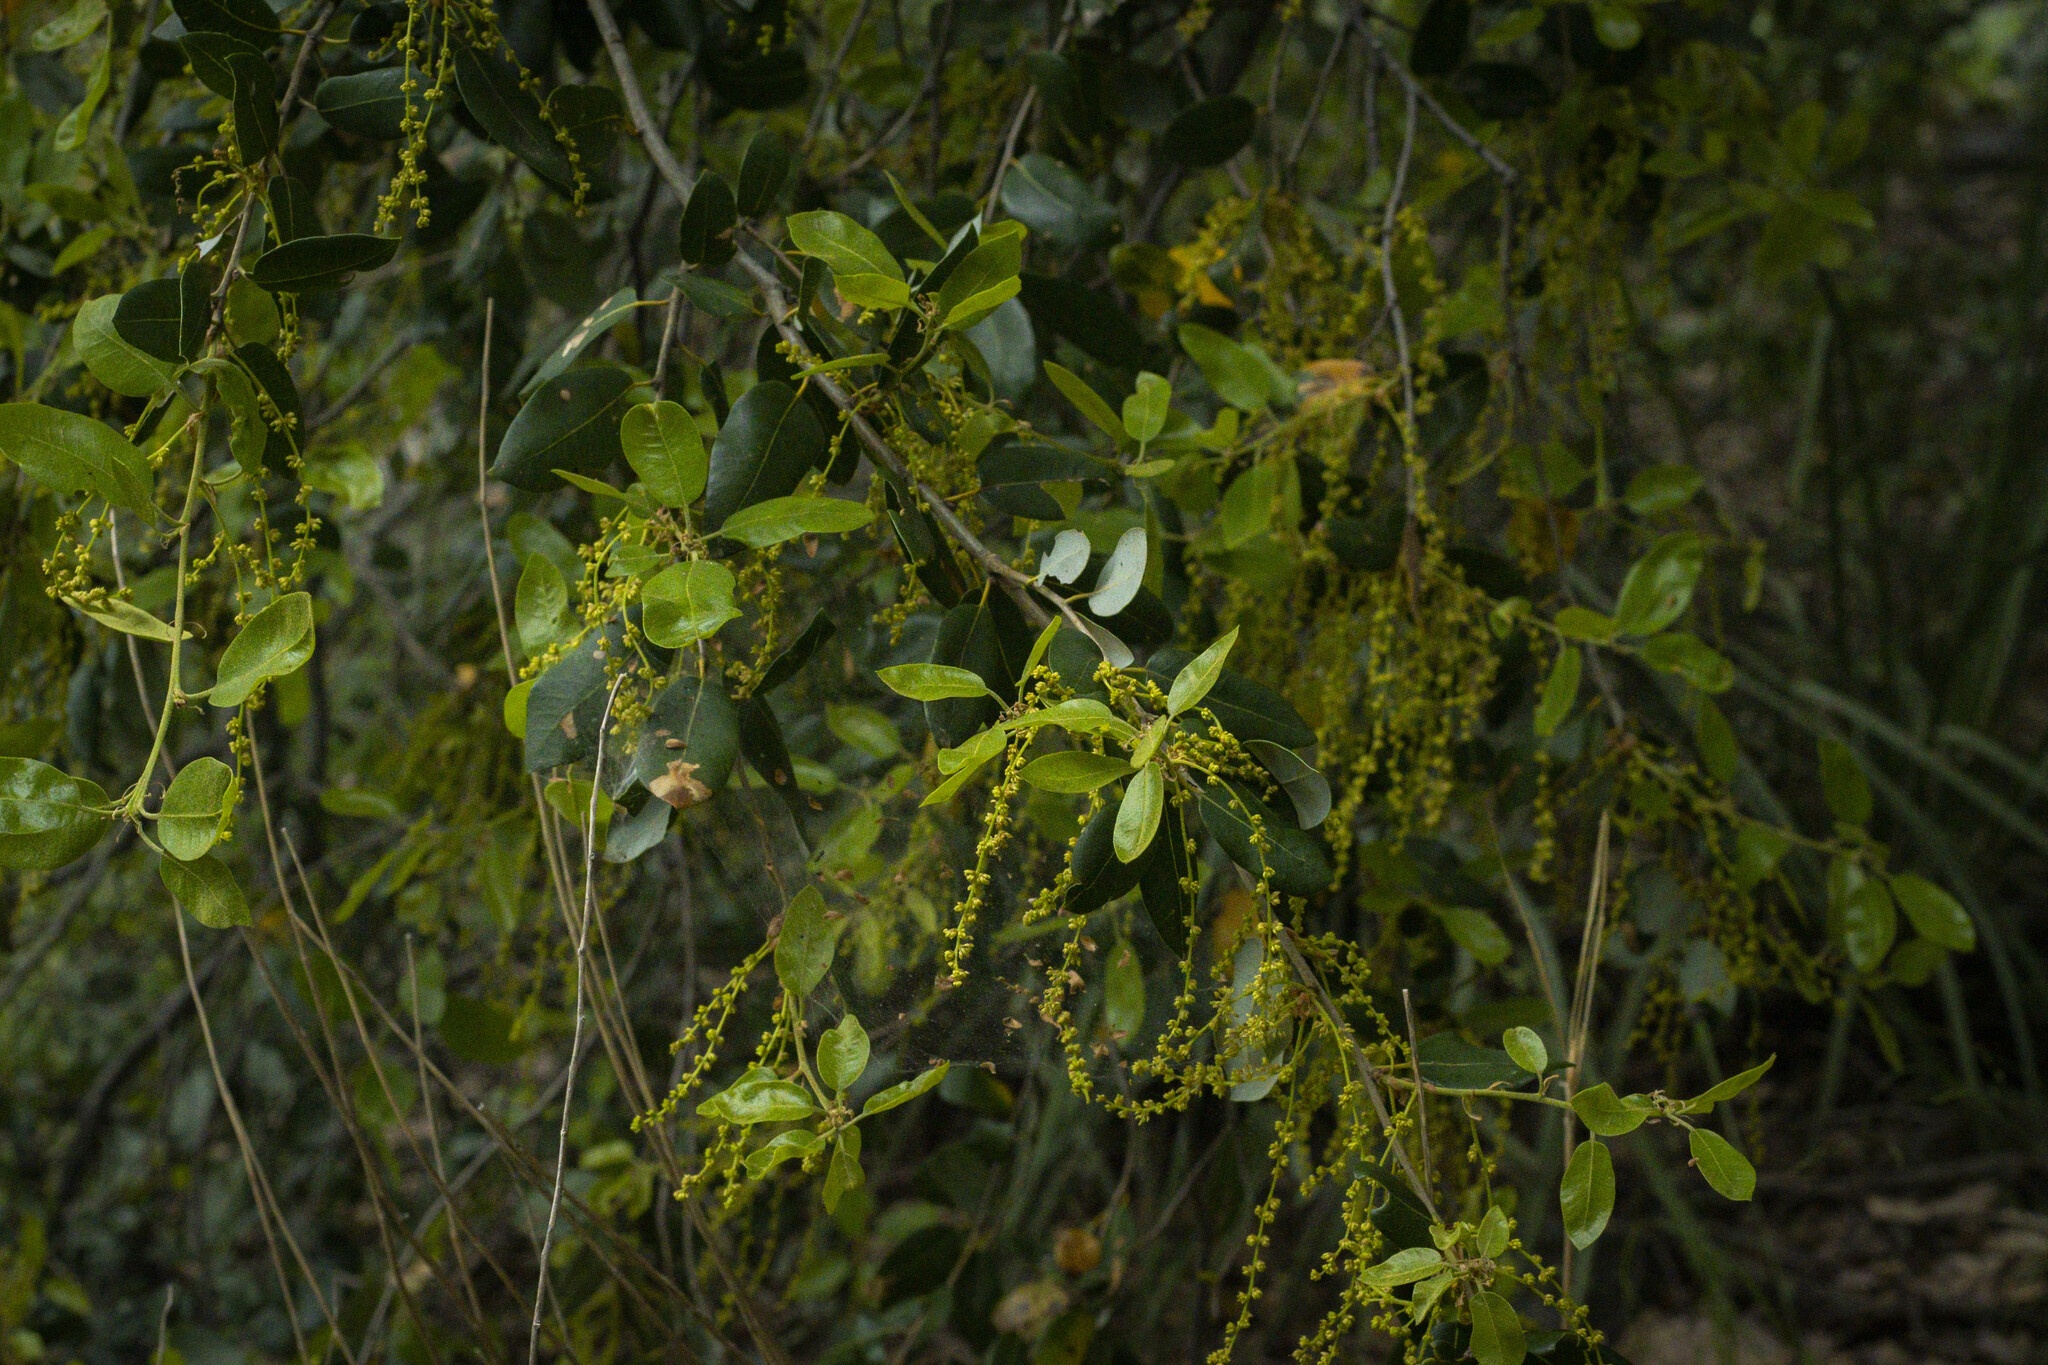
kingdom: Plantae
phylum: Tracheophyta
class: Magnoliopsida
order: Fagales
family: Fagaceae
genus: Quercus
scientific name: Quercus chrysolepis
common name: Canyon live oak
